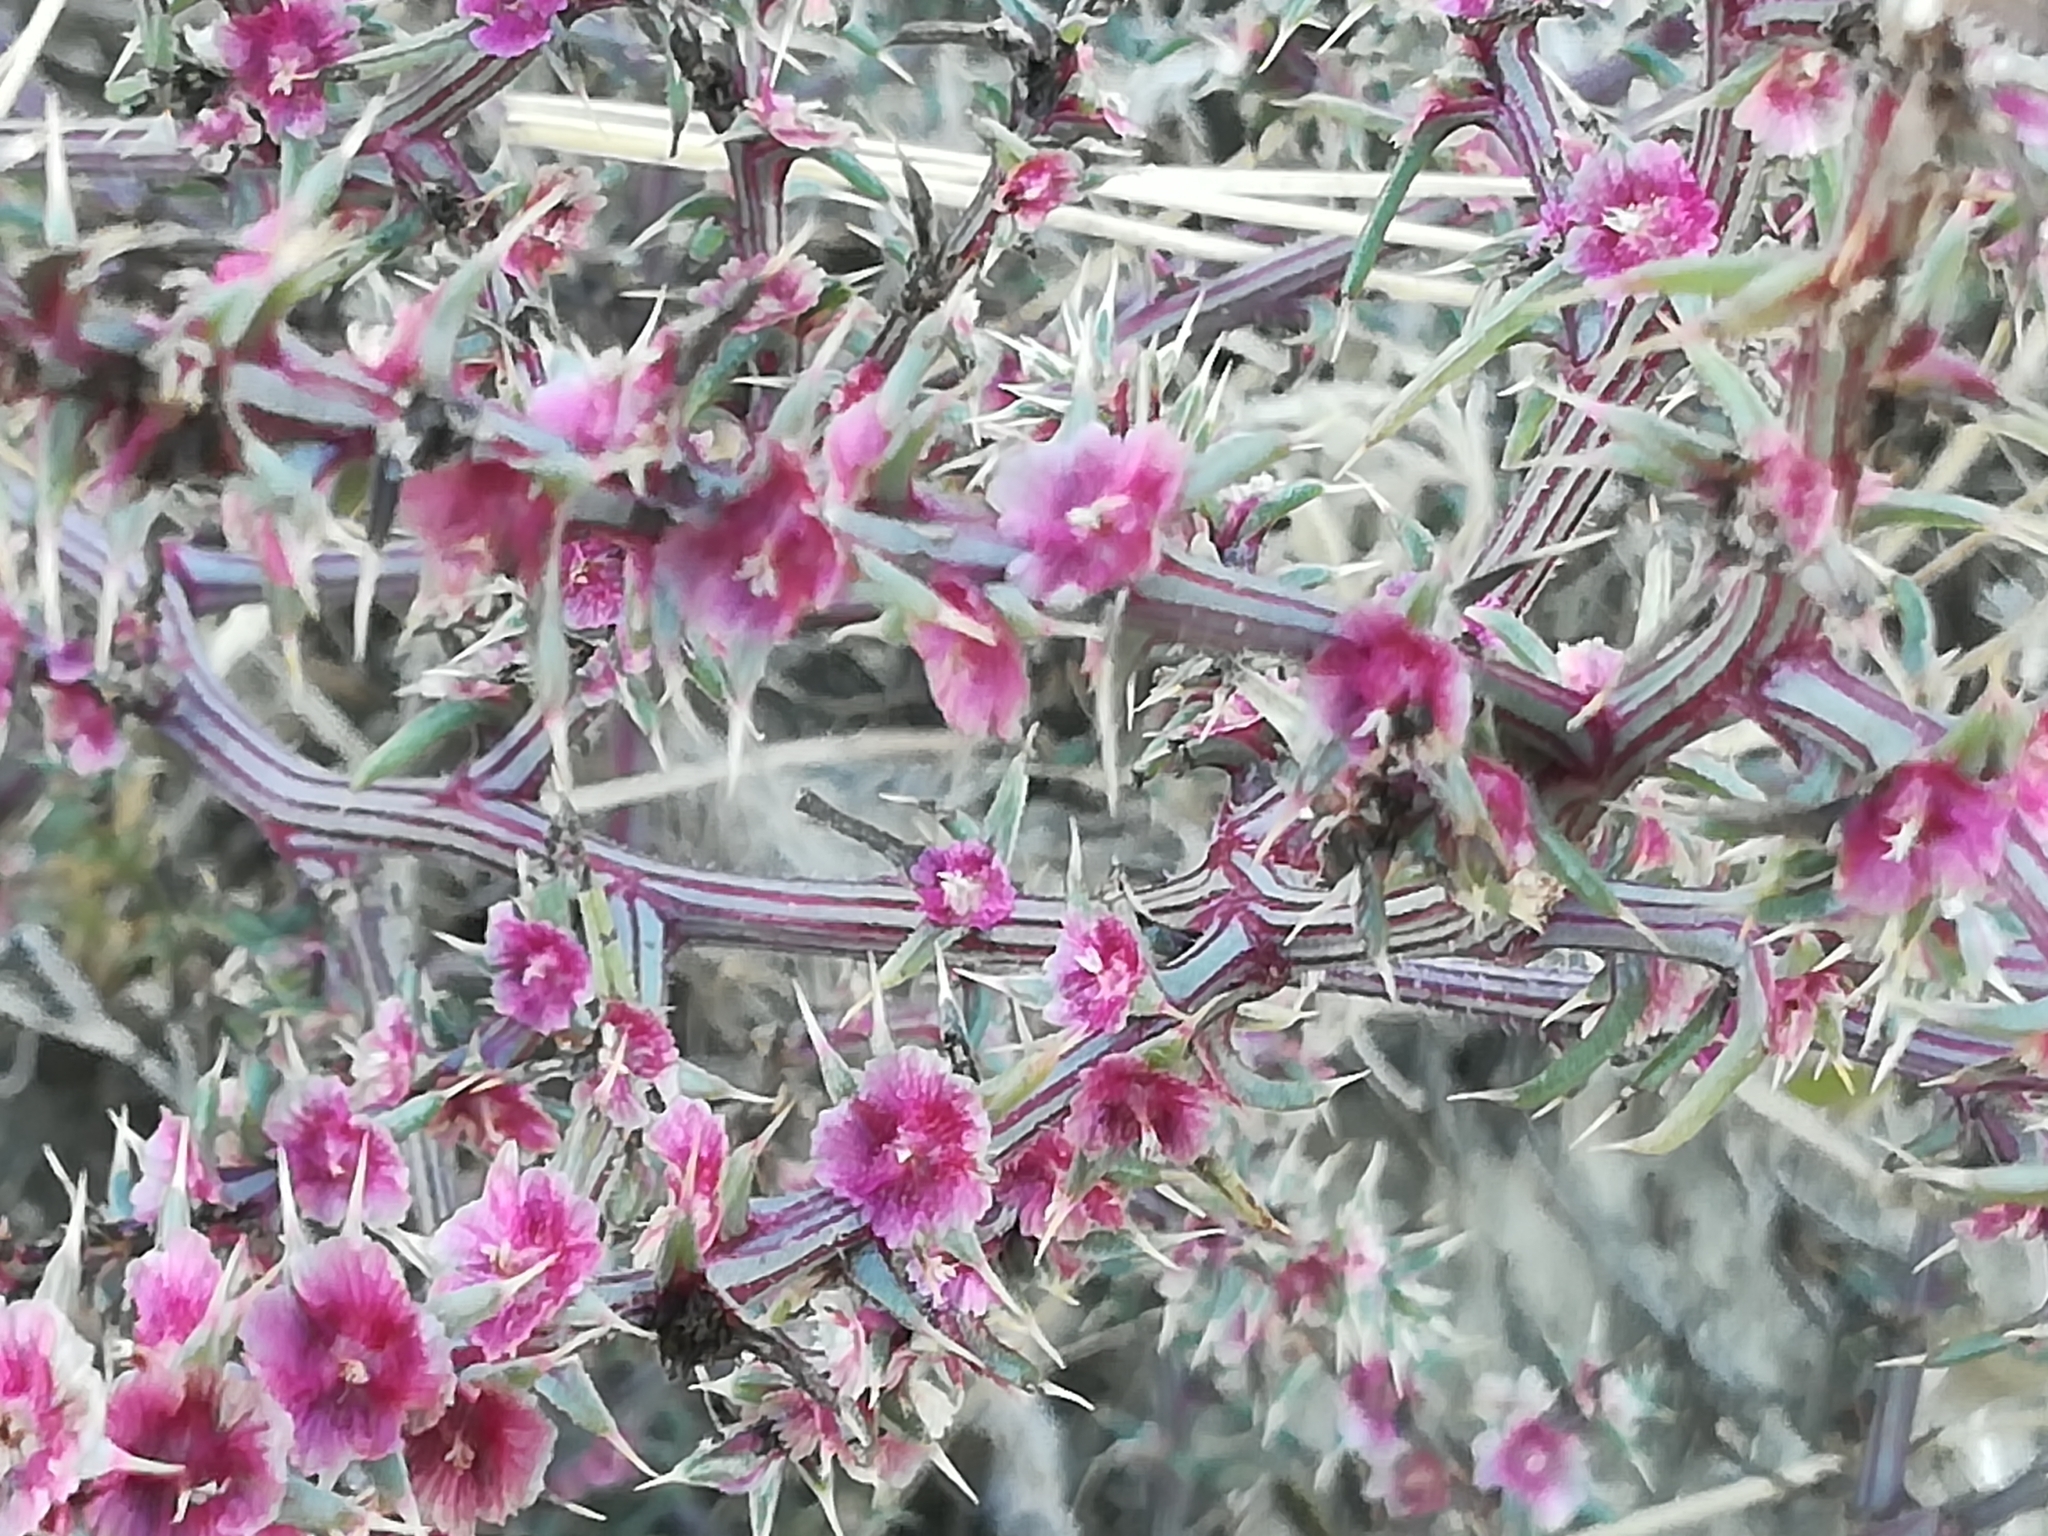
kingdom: Plantae
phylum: Tracheophyta
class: Magnoliopsida
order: Caryophyllales
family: Amaranthaceae
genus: Salsola
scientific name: Salsola tragus
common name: Prickly russian thistle
